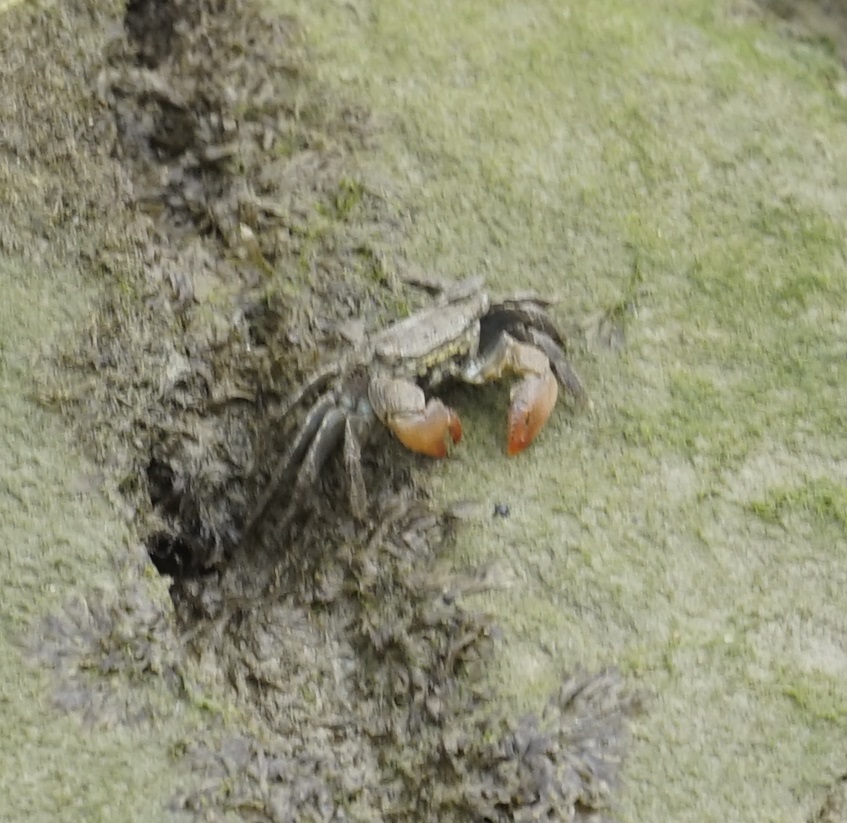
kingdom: Animalia
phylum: Arthropoda
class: Malacostraca
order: Decapoda
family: Sesarmidae
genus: Parasesarma
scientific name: Parasesarma bidens
